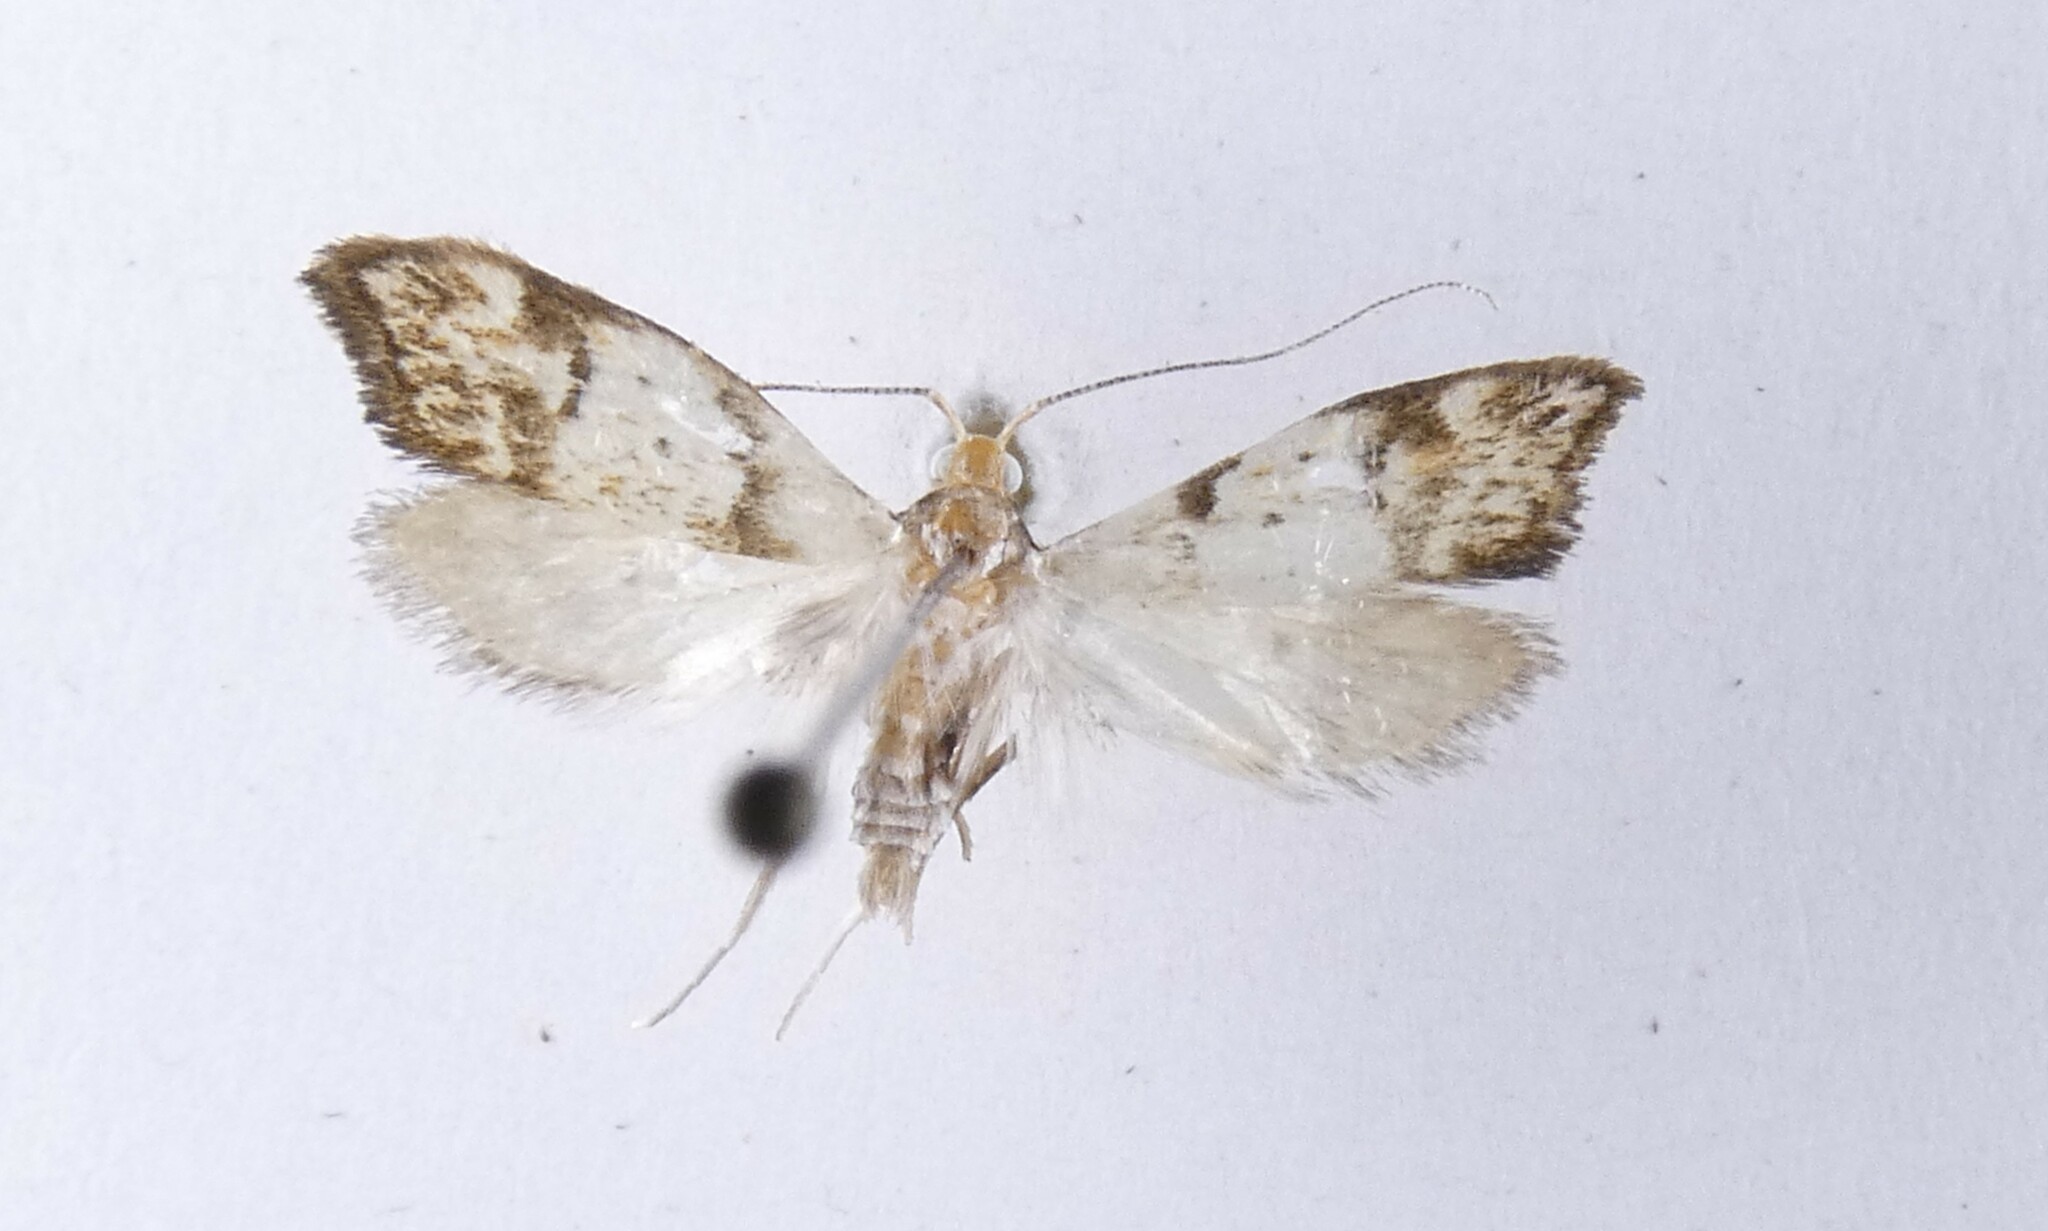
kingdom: Animalia
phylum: Arthropoda
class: Insecta
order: Lepidoptera
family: Oecophoridae
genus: Gymnobathra
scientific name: Gymnobathra hamatella
